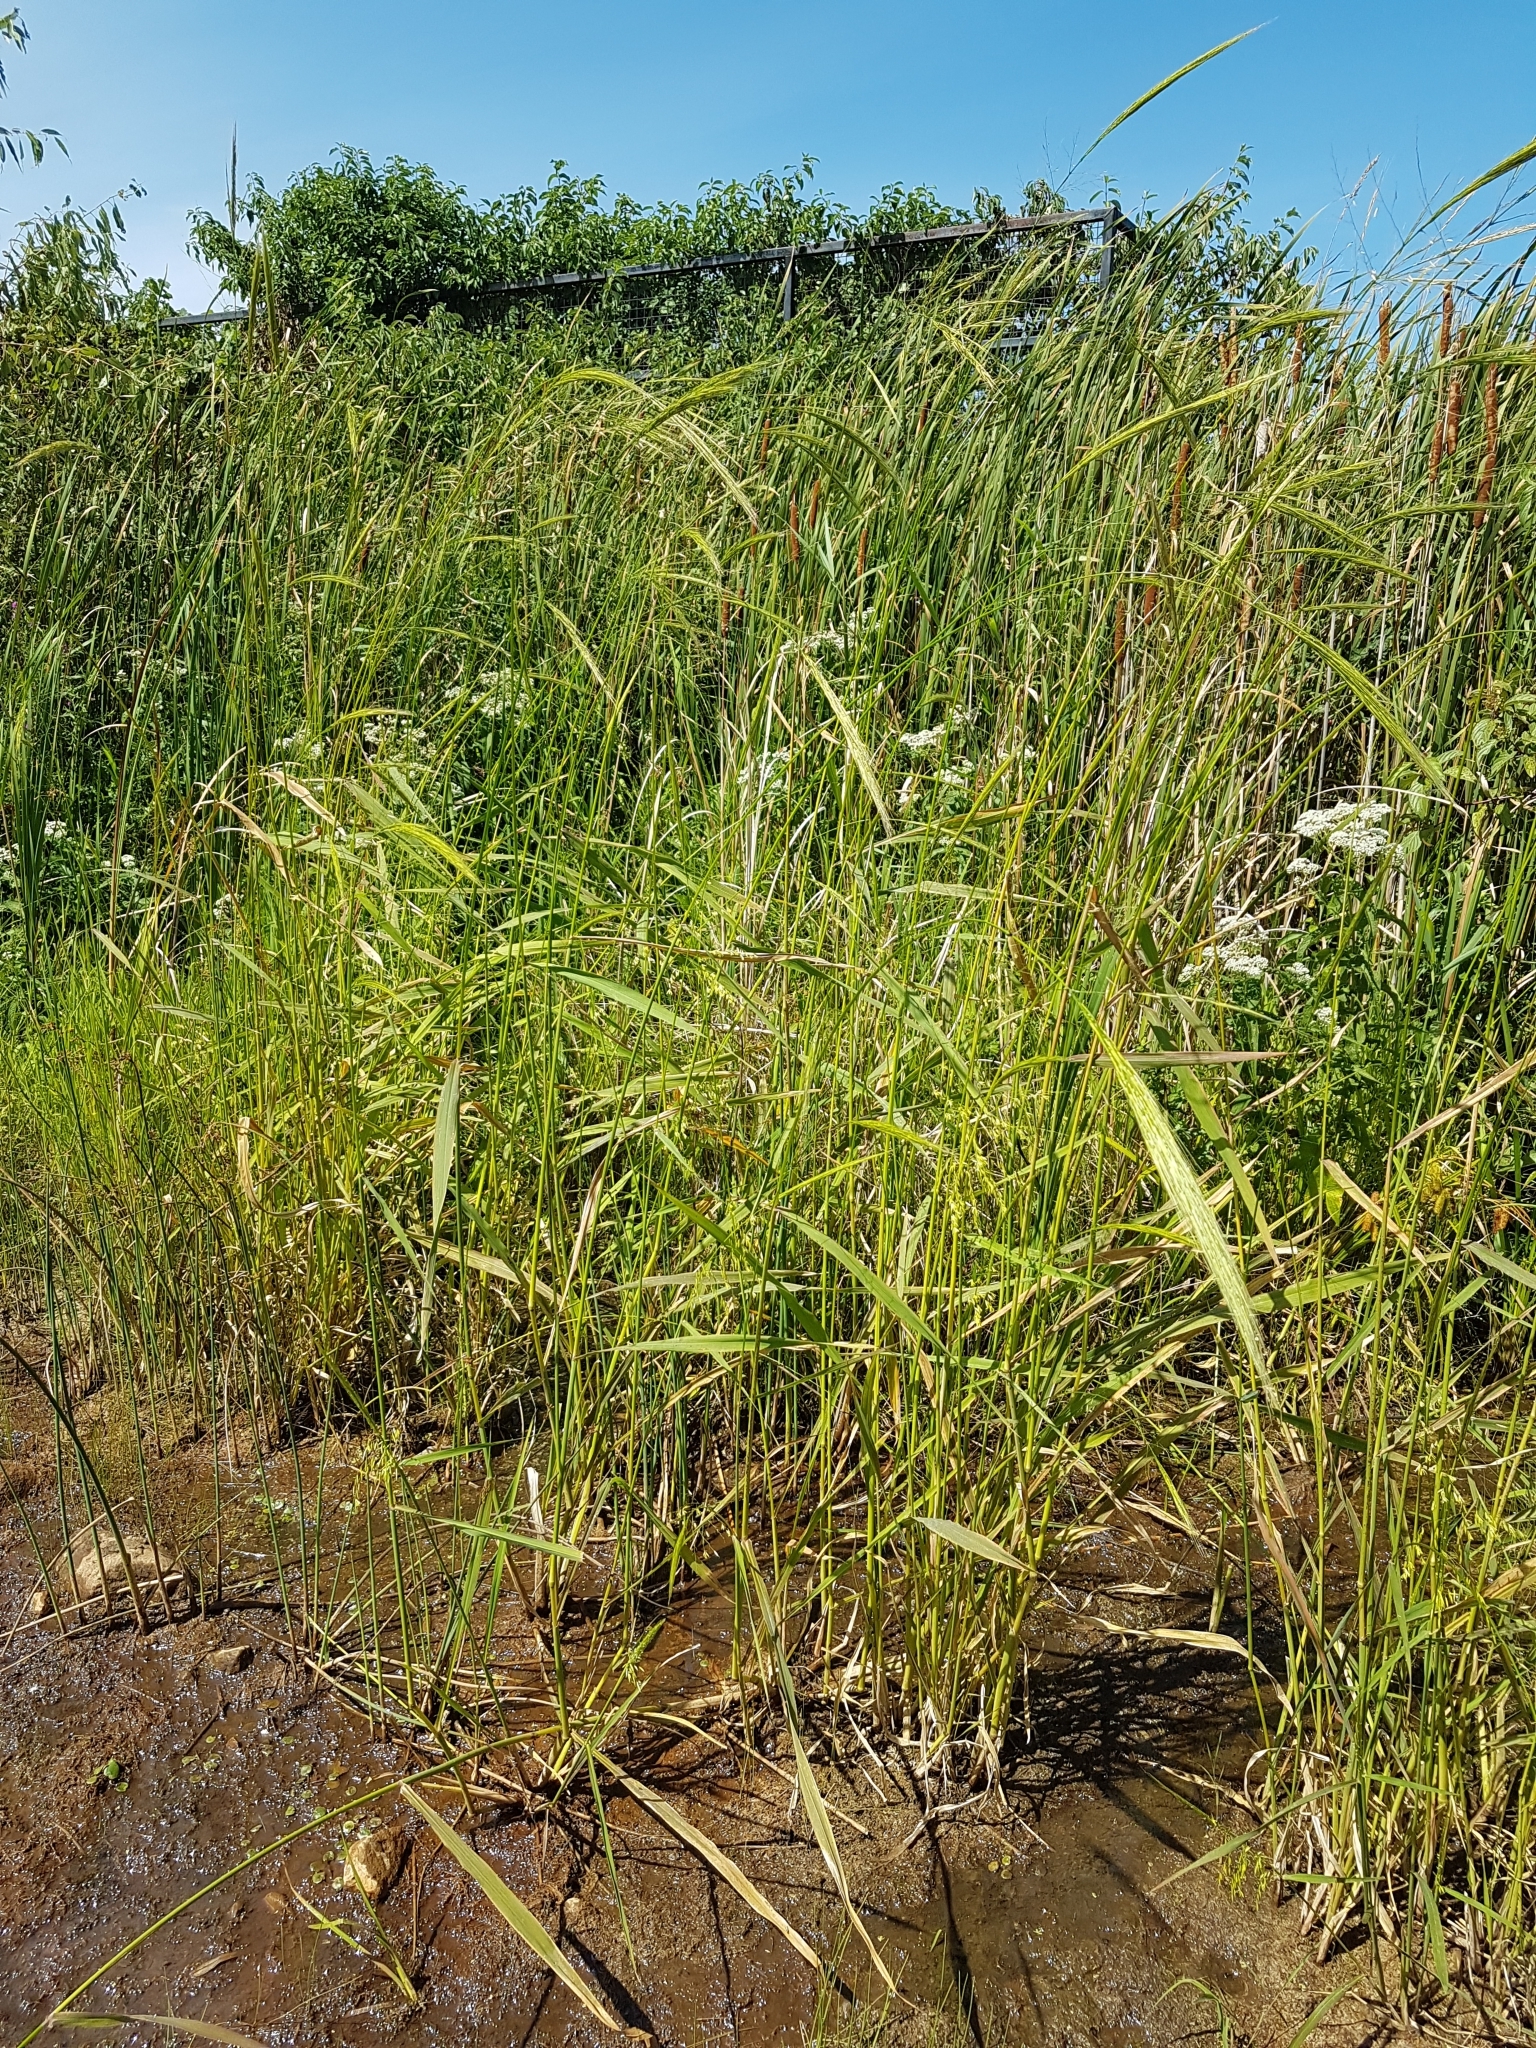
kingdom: Plantae
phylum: Tracheophyta
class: Liliopsida
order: Poales
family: Poaceae
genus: Zizania
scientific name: Zizania aquatica
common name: Annual wildrice
